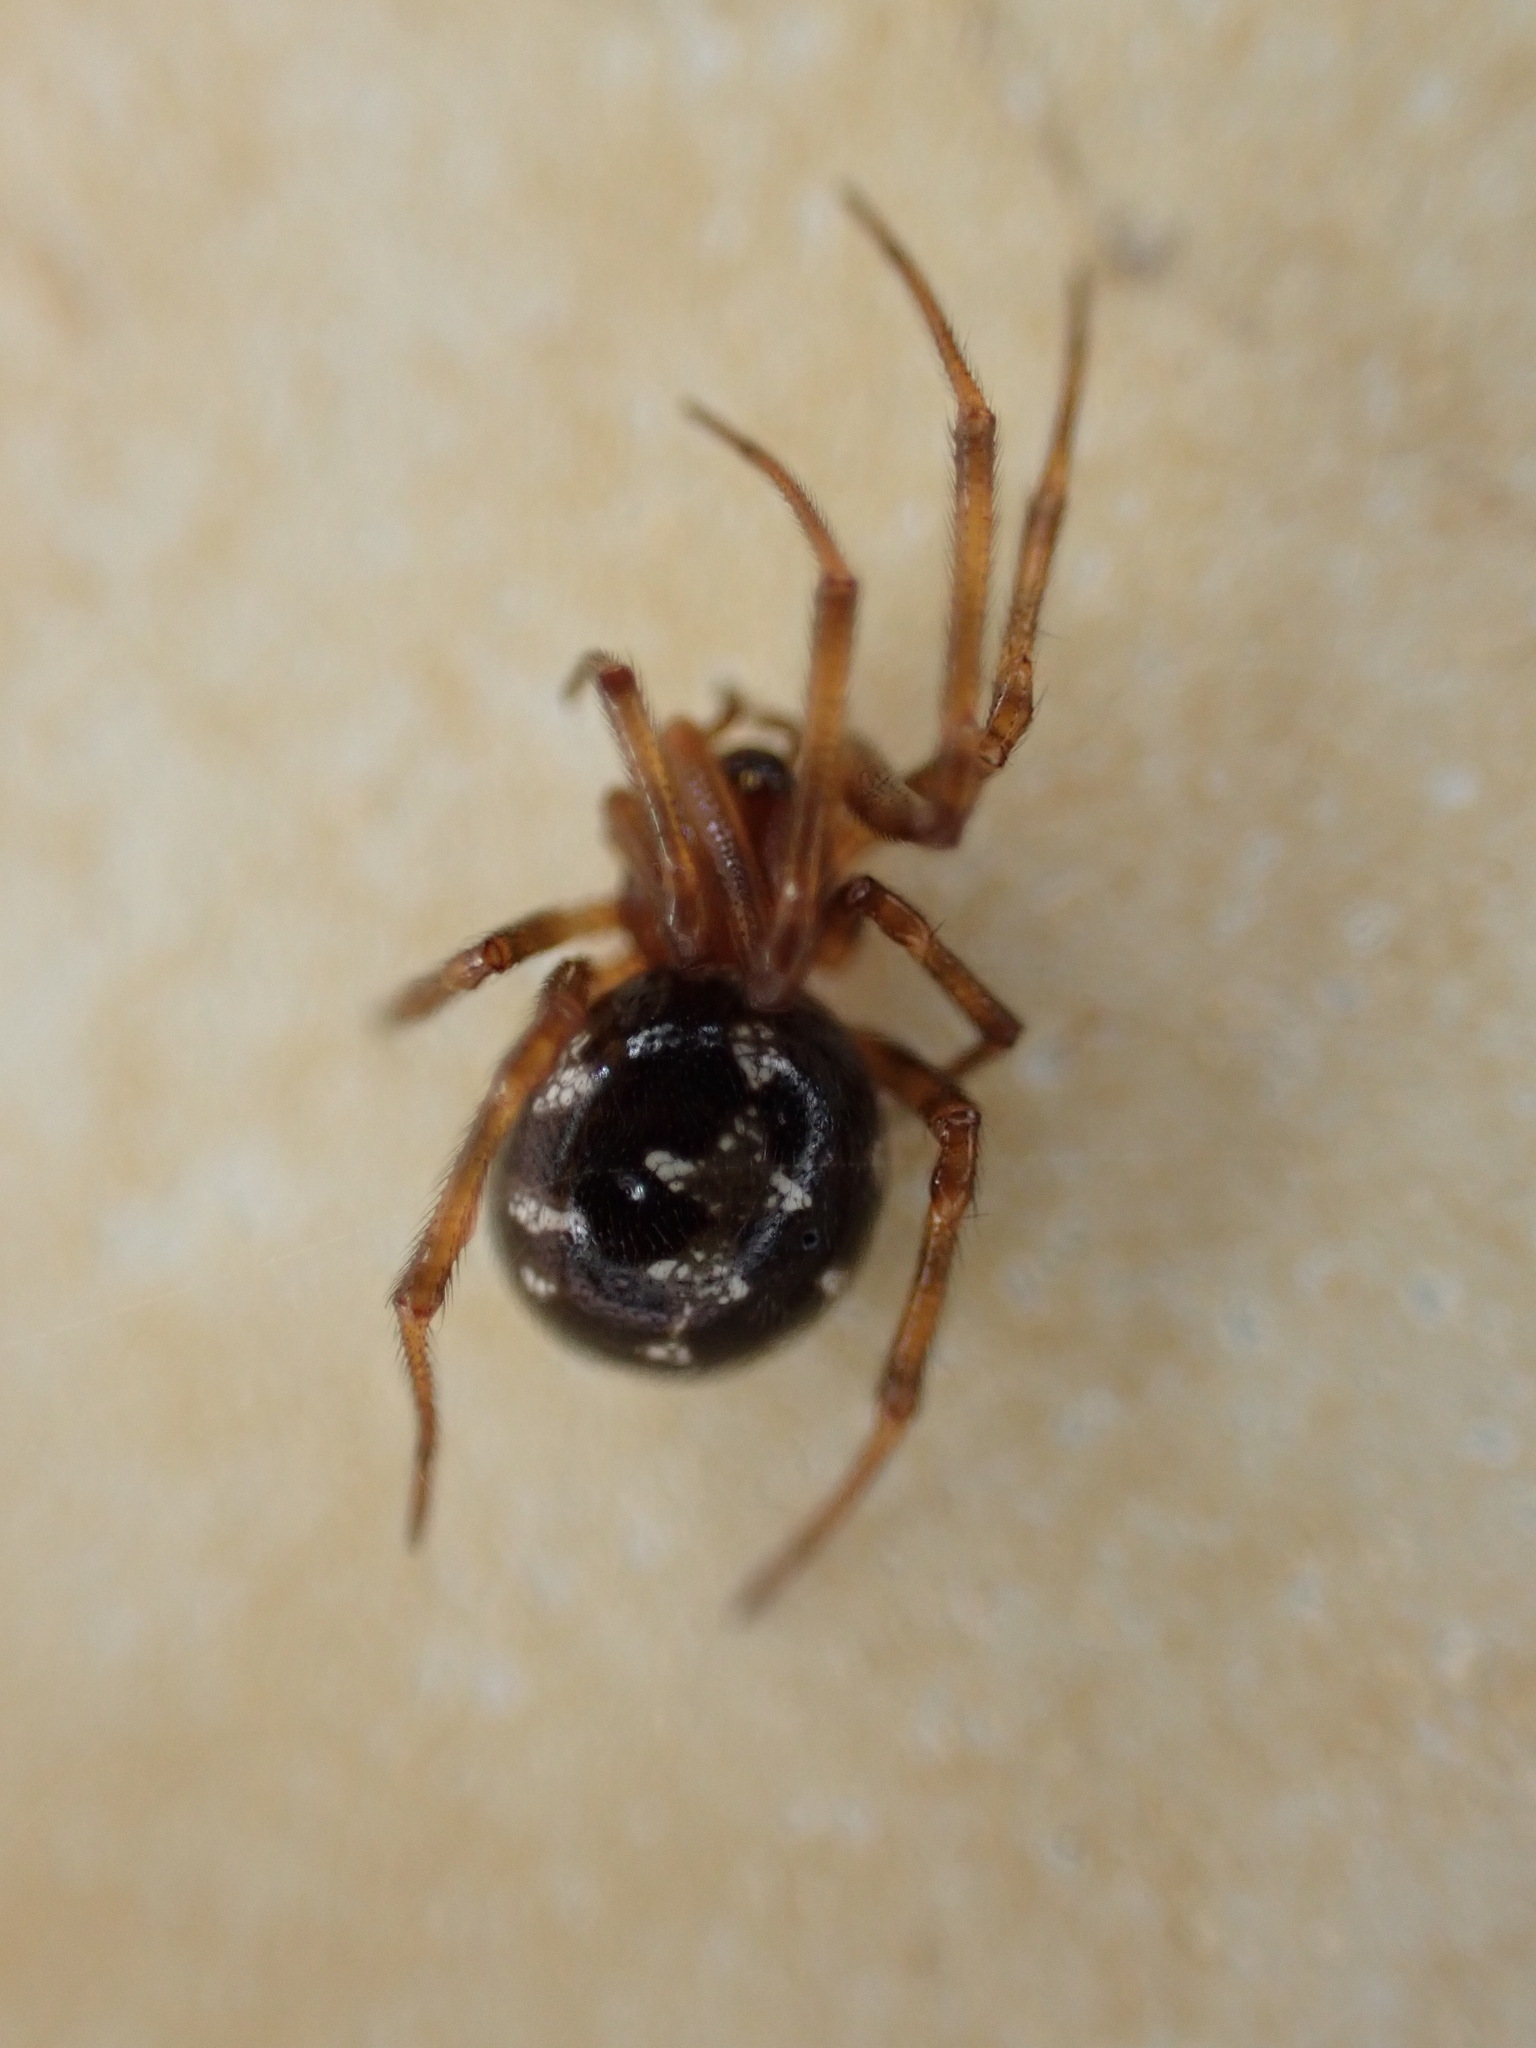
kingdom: Animalia
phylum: Arthropoda
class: Arachnida
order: Araneae
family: Theridiidae
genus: Steatoda
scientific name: Steatoda triangulosa
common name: Triangulate bud spider
